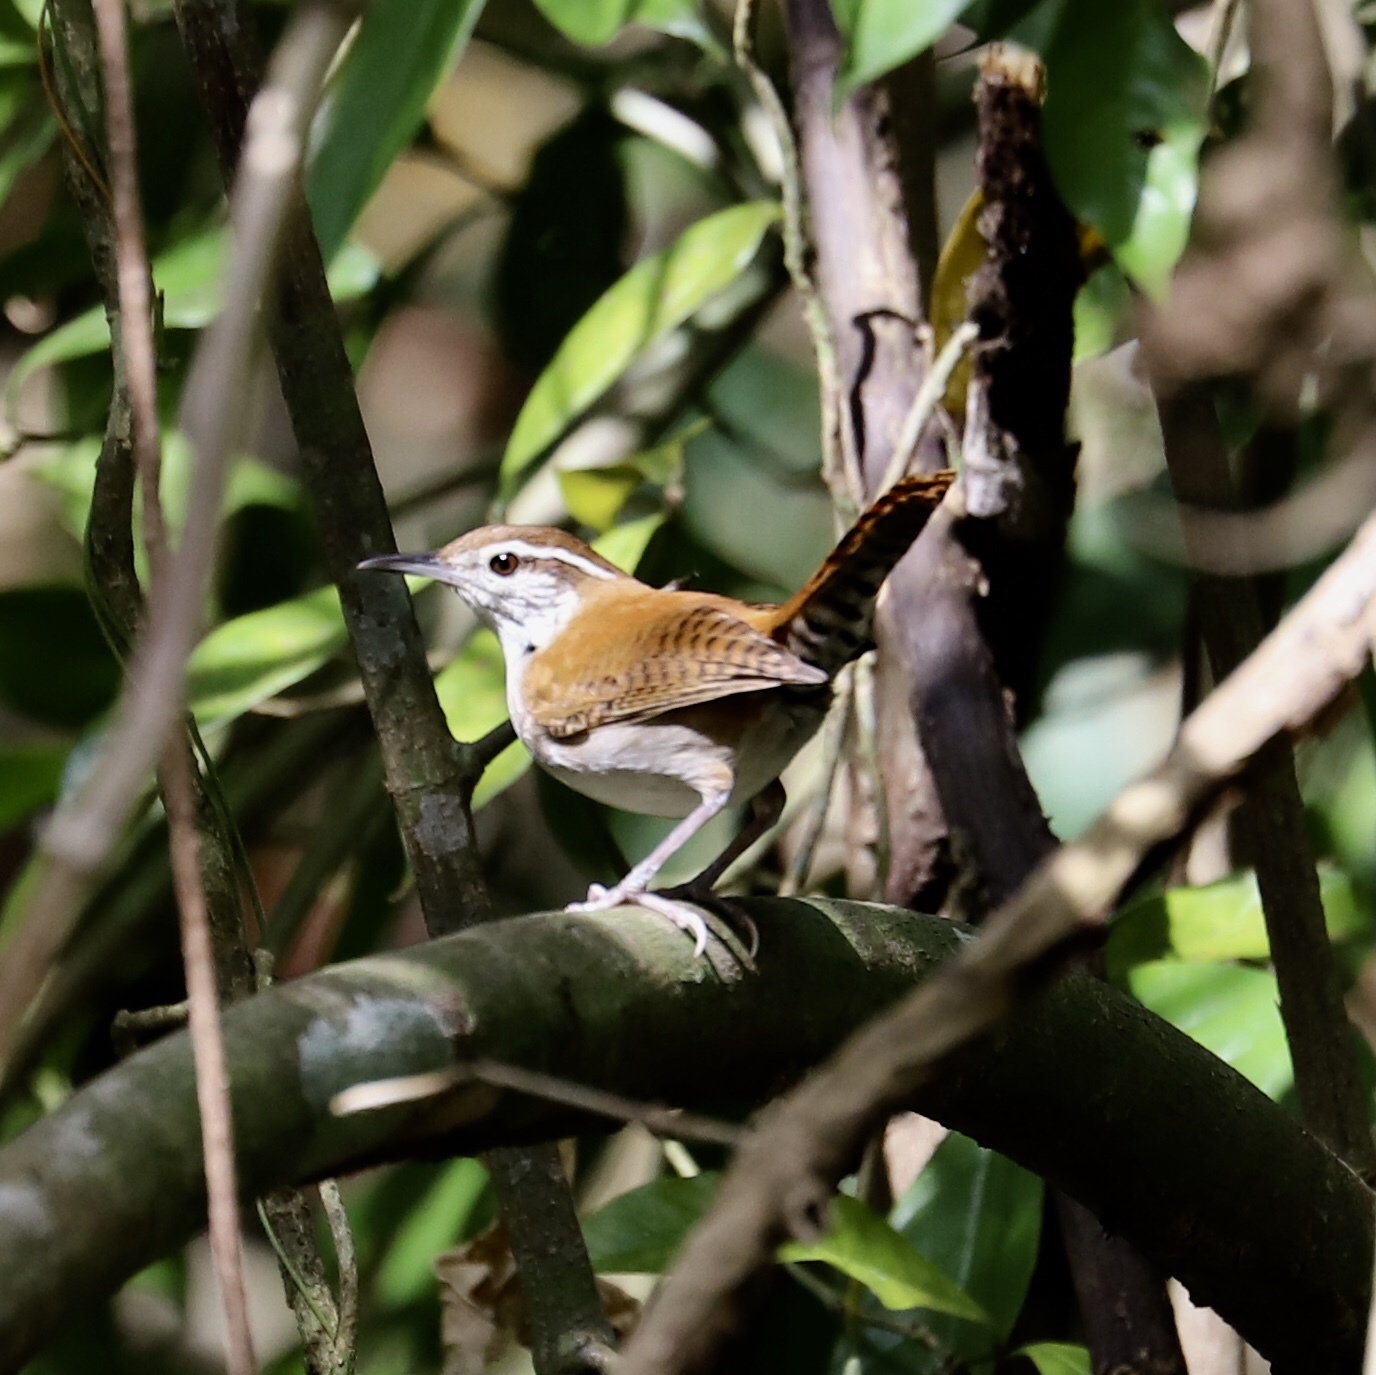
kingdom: Animalia
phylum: Chordata
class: Aves
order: Passeriformes
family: Troglodytidae
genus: Thryophilus
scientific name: Thryophilus rufalbus
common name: Rufous-and-white wren
